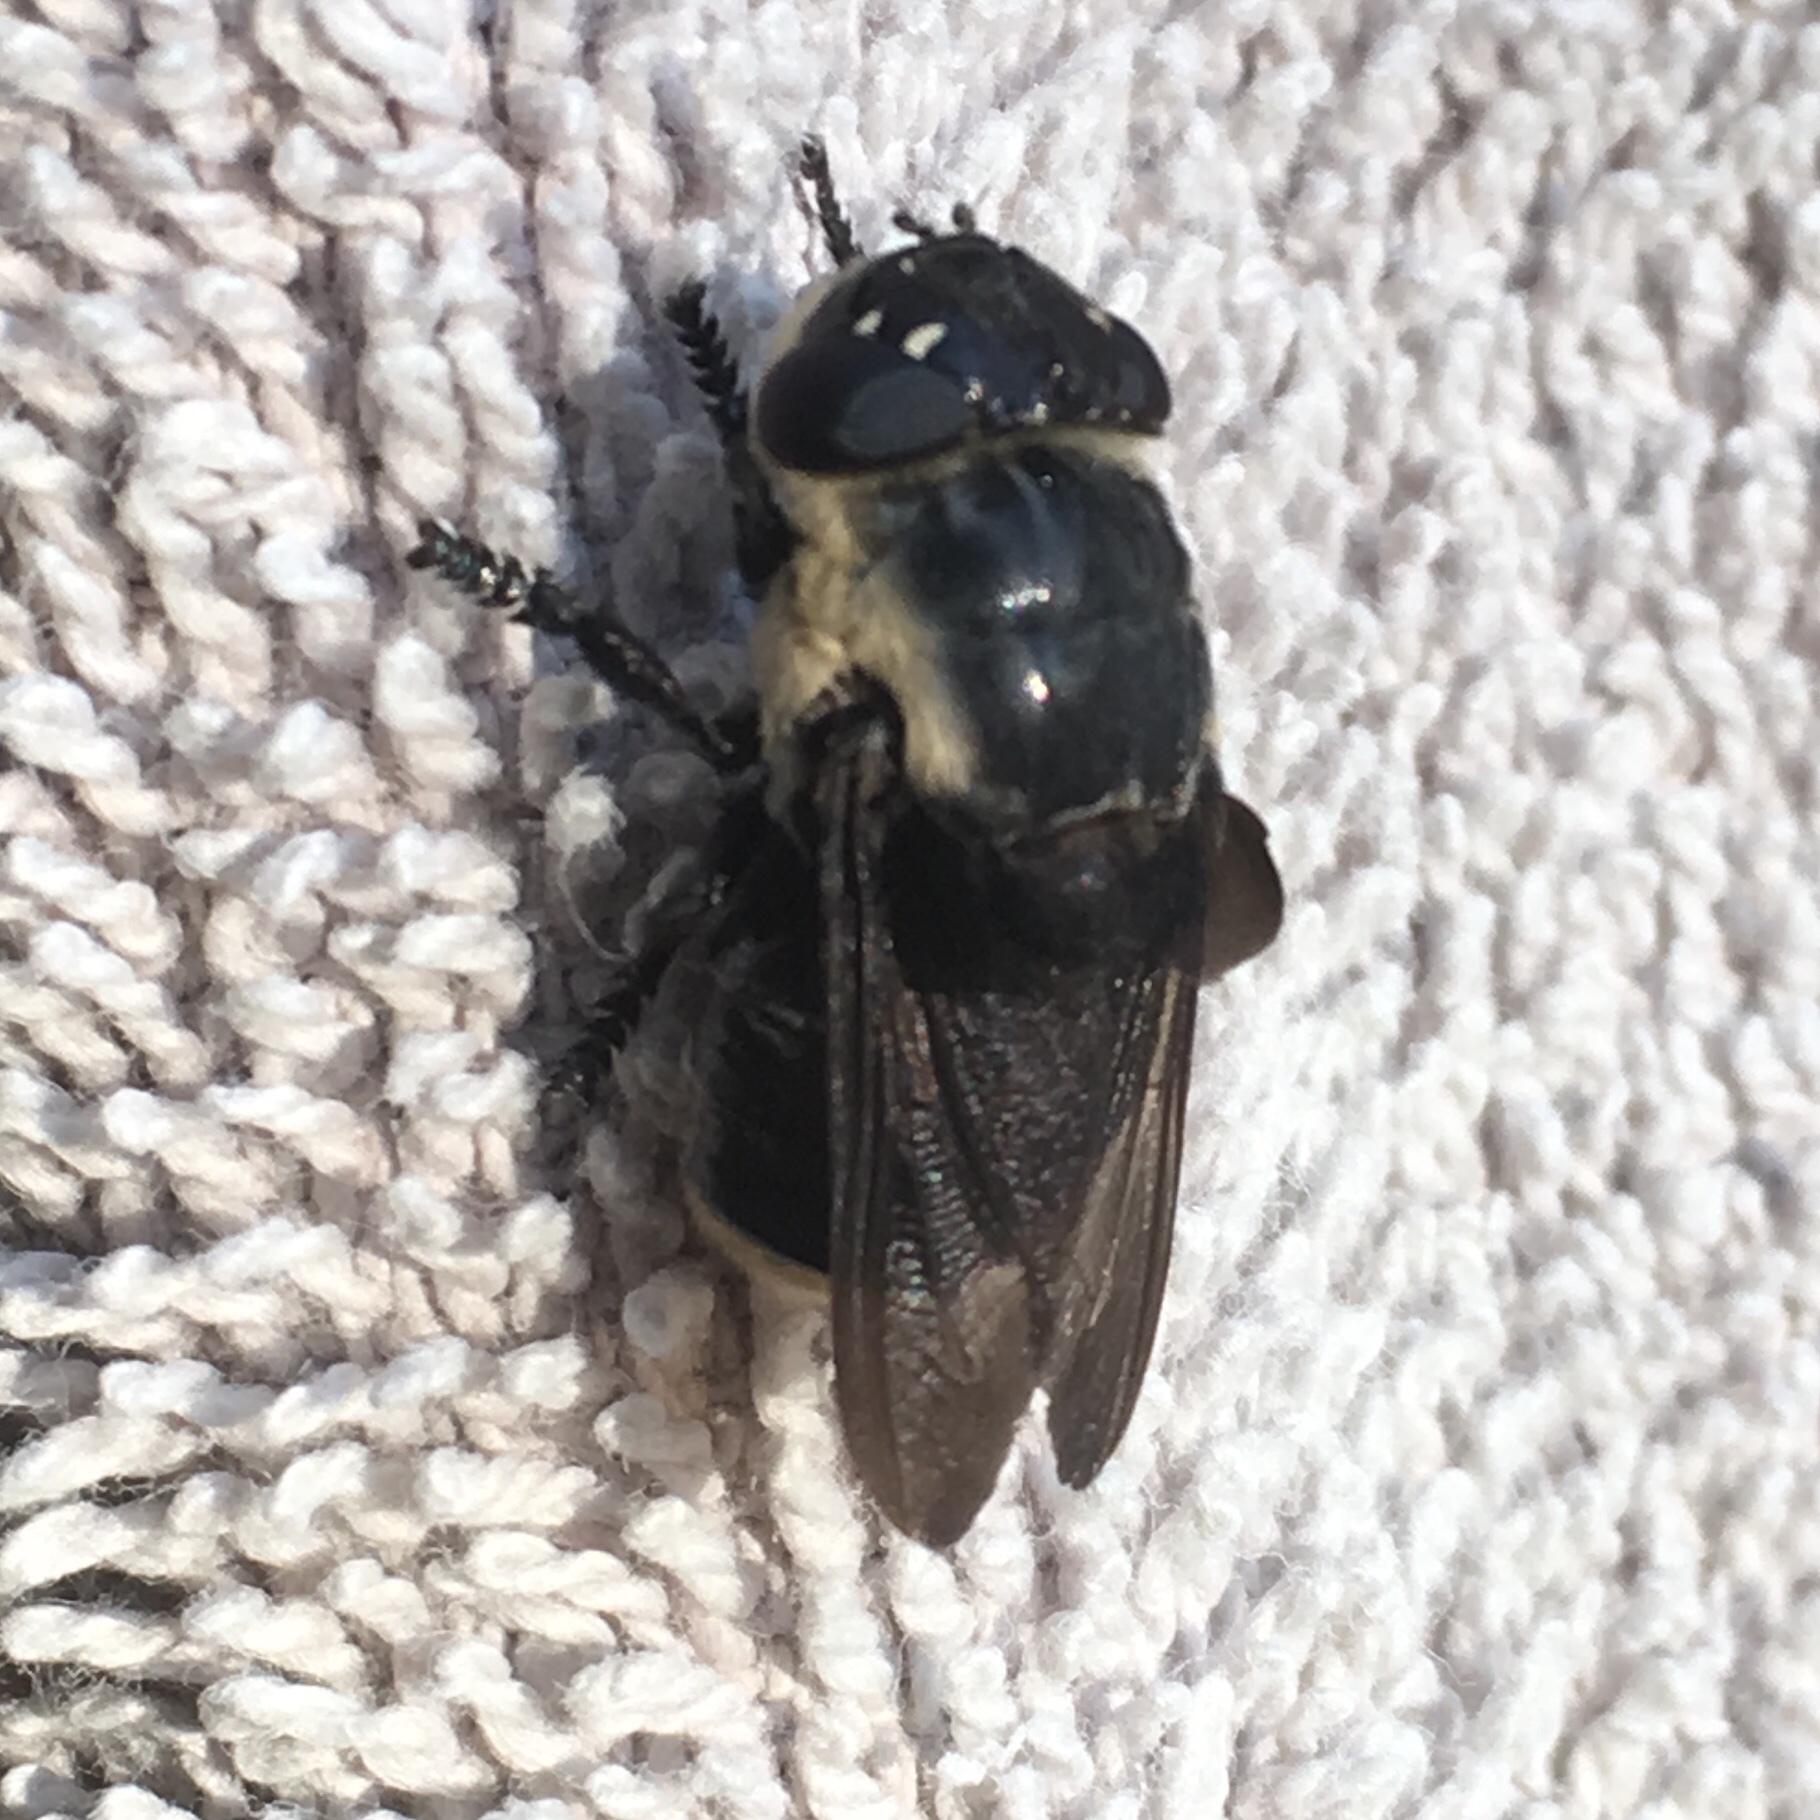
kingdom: Animalia
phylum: Arthropoda
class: Insecta
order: Diptera
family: Oestridae
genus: Cuterebra
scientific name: Cuterebra fontinella
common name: Mouse bot fly
